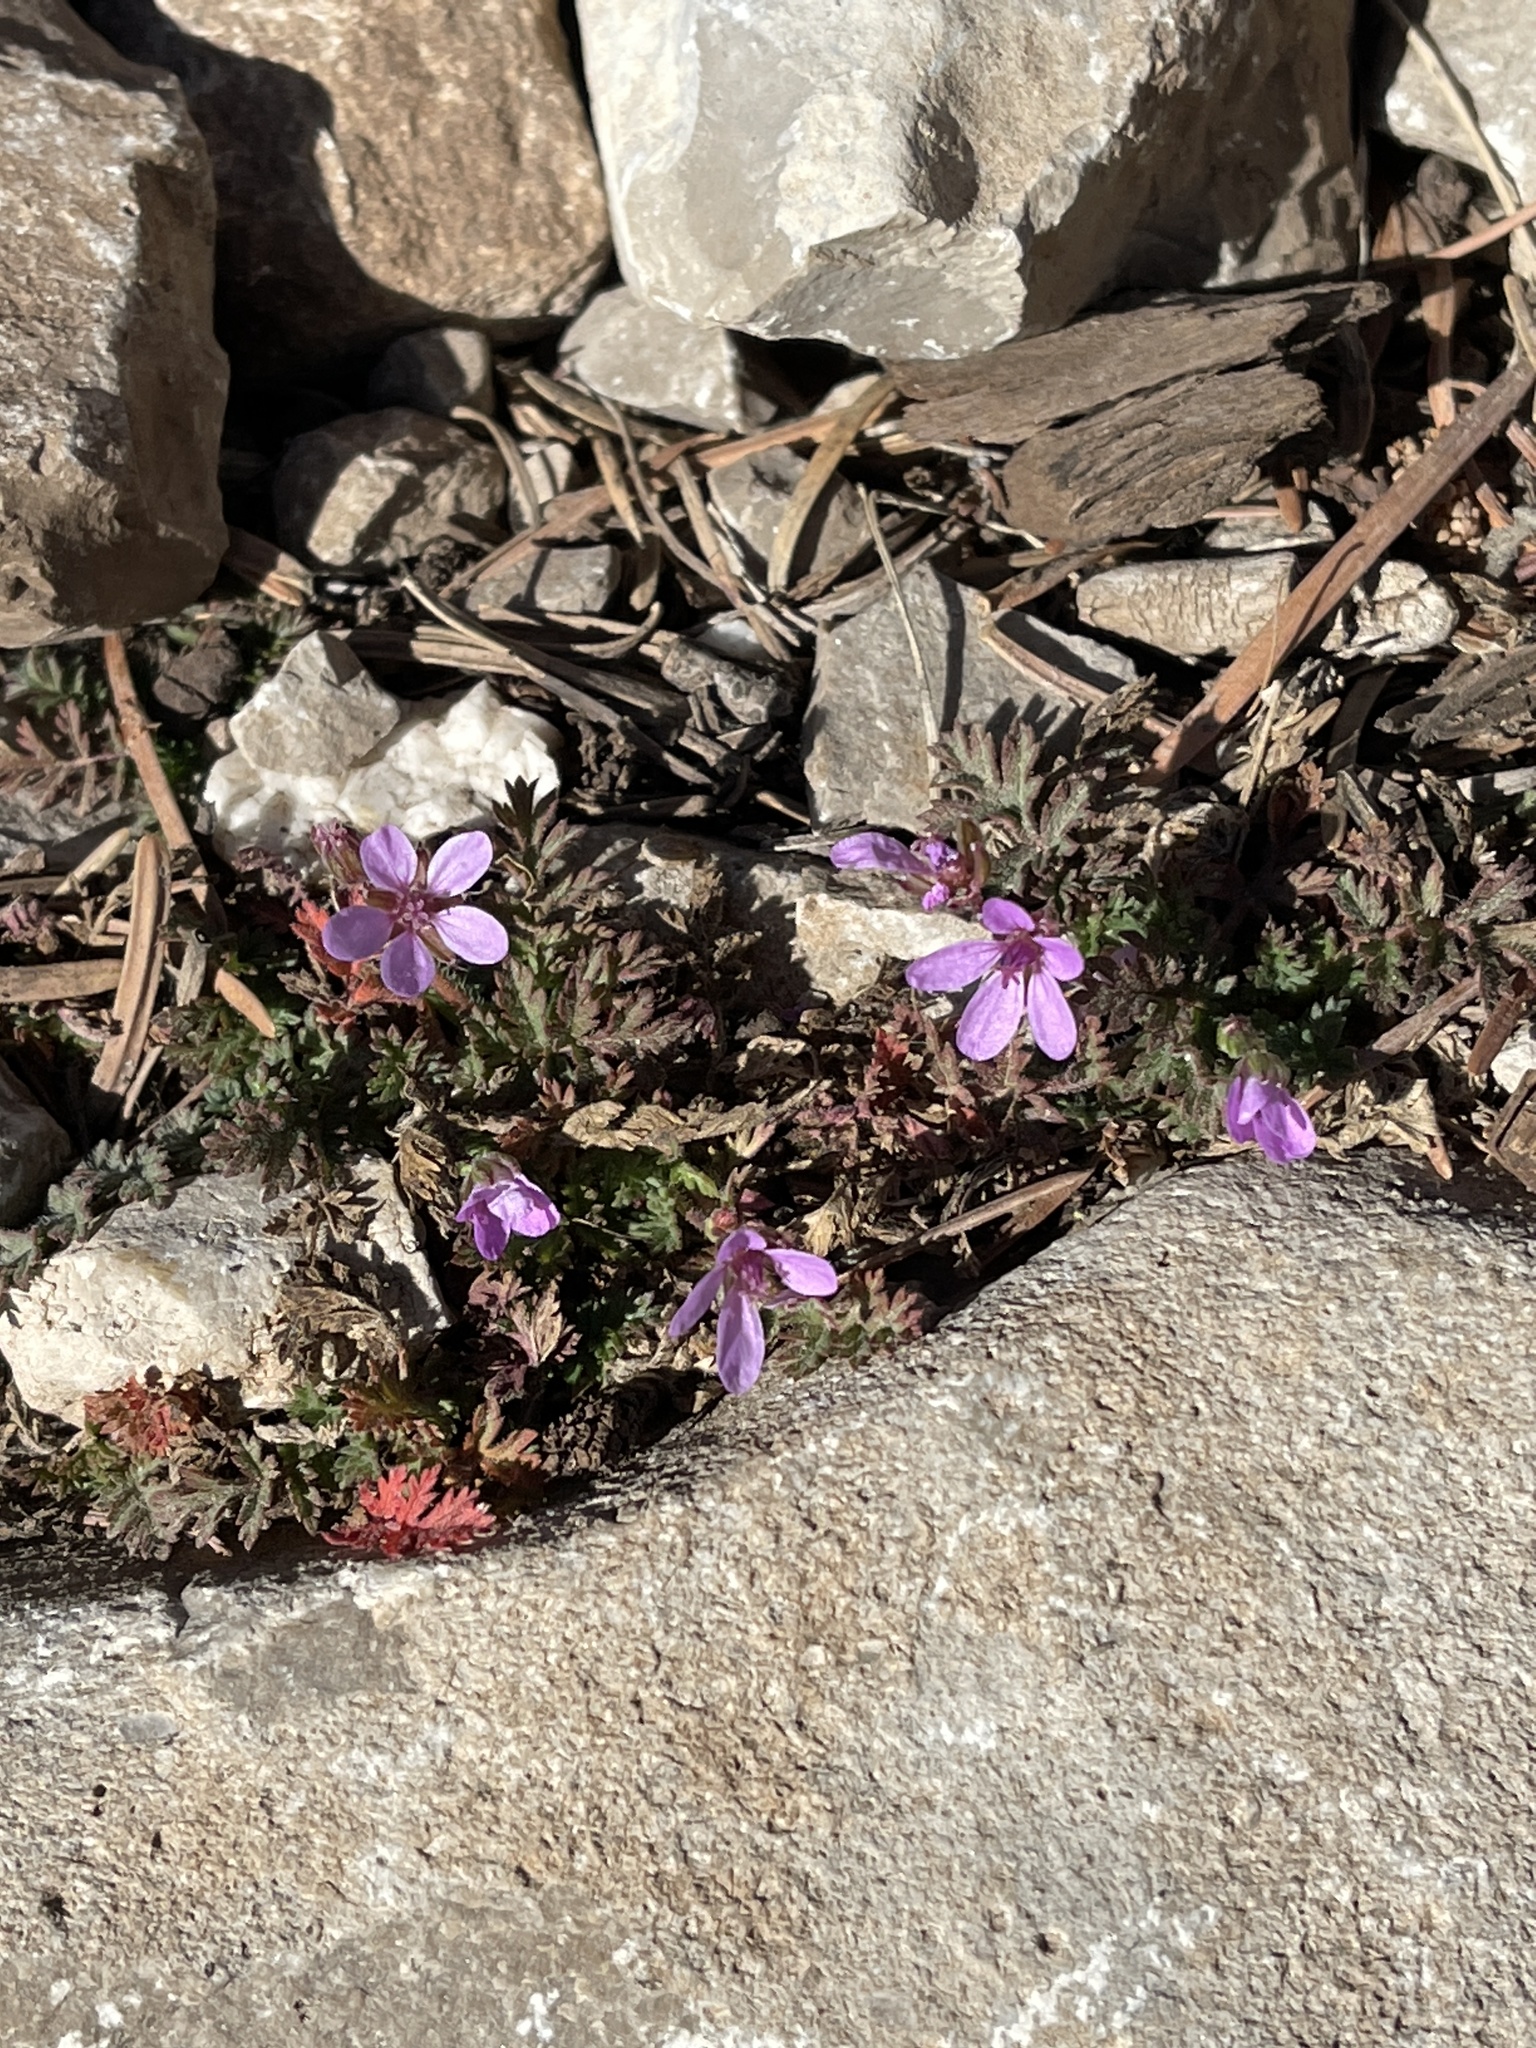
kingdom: Plantae
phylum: Tracheophyta
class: Magnoliopsida
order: Geraniales
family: Geraniaceae
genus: Erodium
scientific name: Erodium cicutarium
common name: Common stork's-bill
